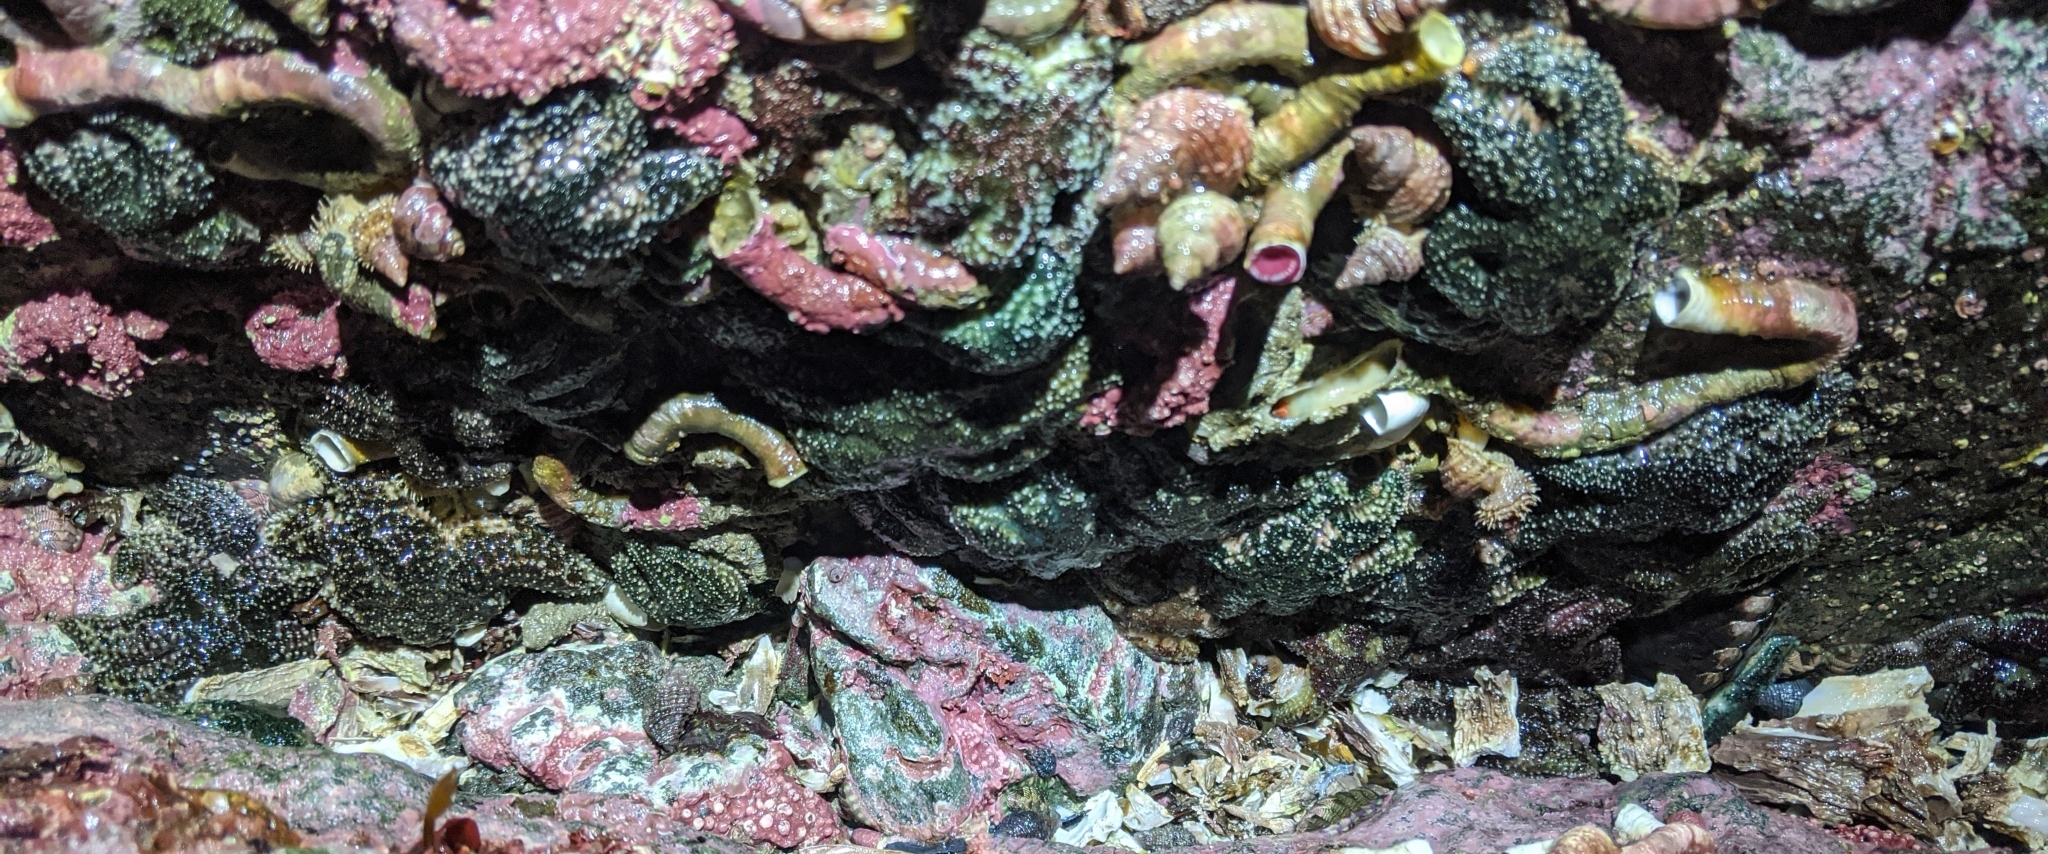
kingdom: Animalia
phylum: Echinodermata
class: Asteroidea
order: Forcipulatida
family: Asteriidae
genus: Leptasterias
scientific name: Leptasterias hexactis
